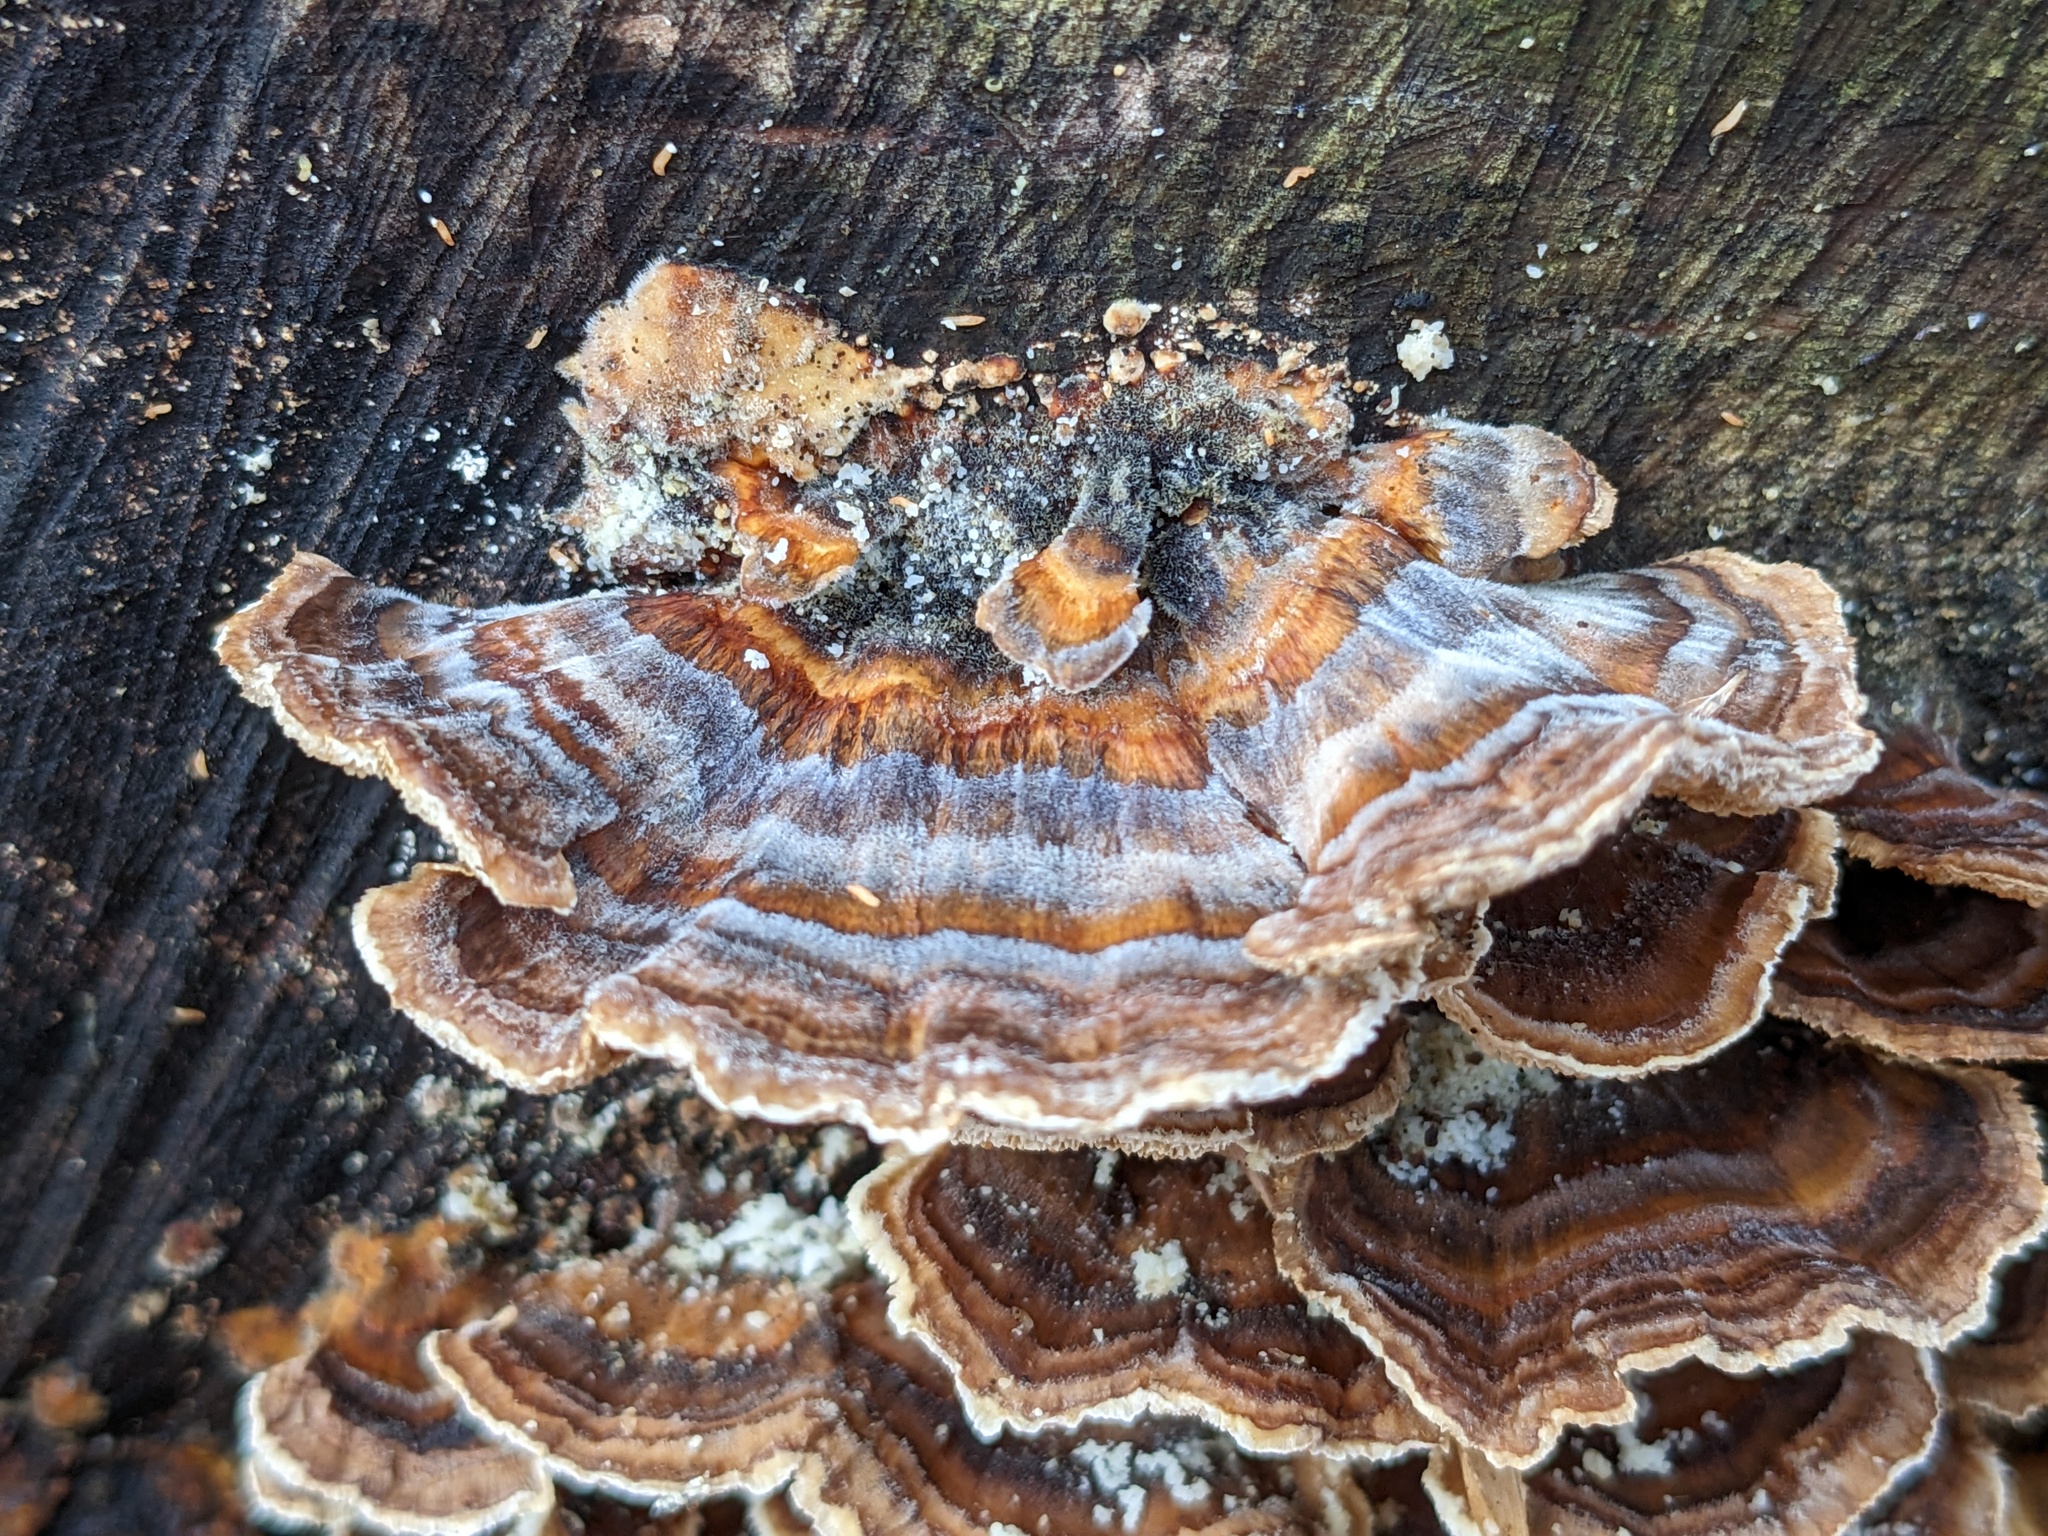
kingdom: Fungi
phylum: Basidiomycota
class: Agaricomycetes
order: Polyporales
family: Polyporaceae
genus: Trametes
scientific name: Trametes versicolor
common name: Turkeytail
